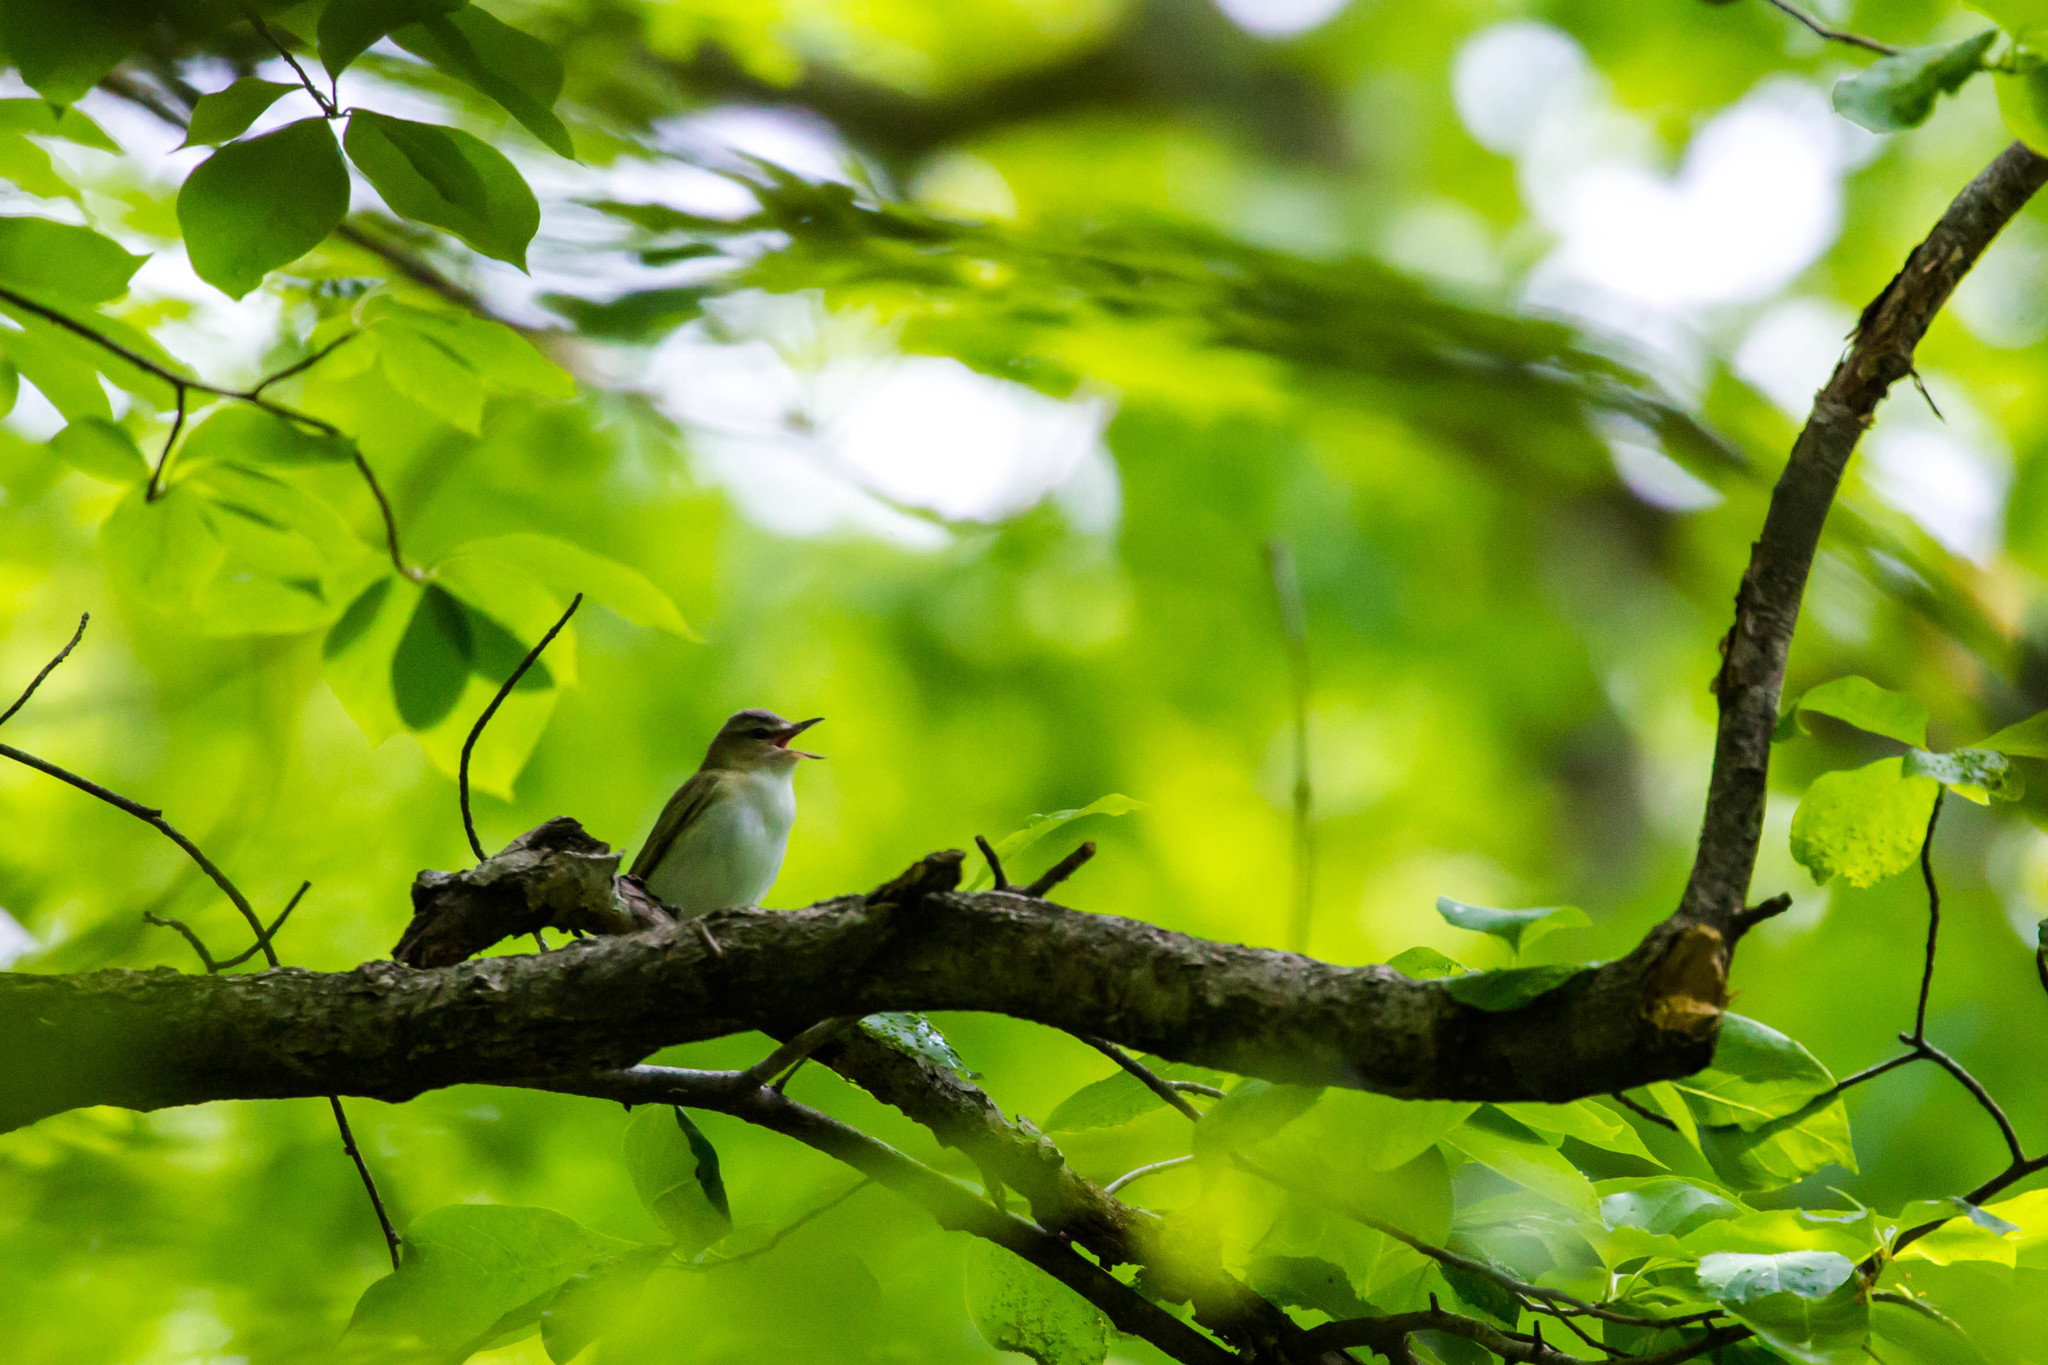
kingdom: Animalia
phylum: Chordata
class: Aves
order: Passeriformes
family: Vireonidae
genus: Vireo
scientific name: Vireo olivaceus
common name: Red-eyed vireo
